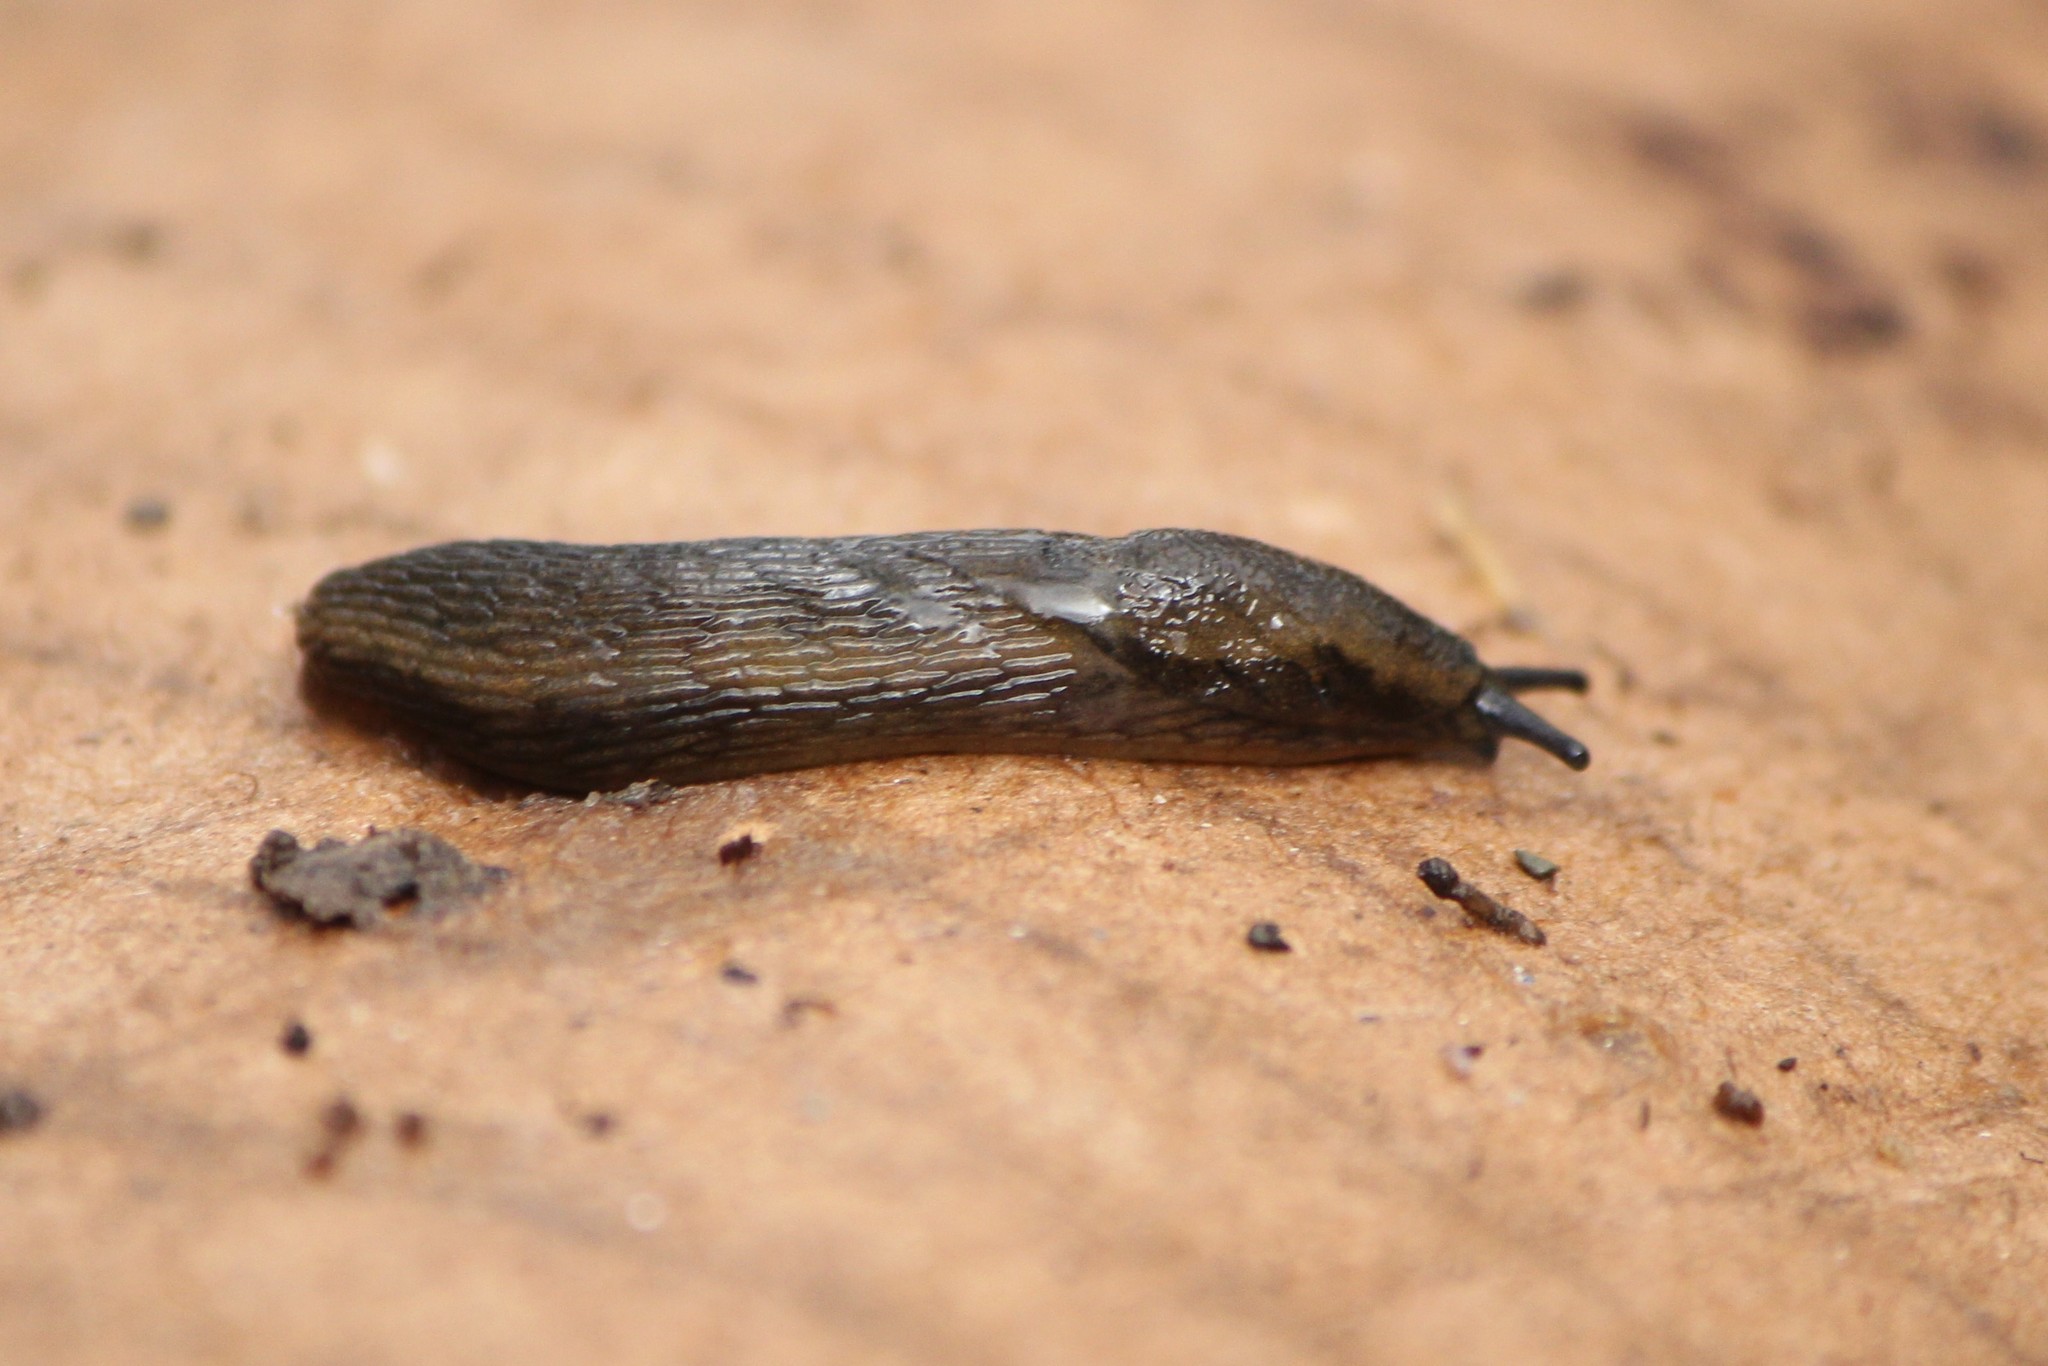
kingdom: Animalia
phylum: Mollusca
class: Gastropoda
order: Stylommatophora
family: Arionidae
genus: Arion
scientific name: Arion distinctus
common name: Darkface arion
